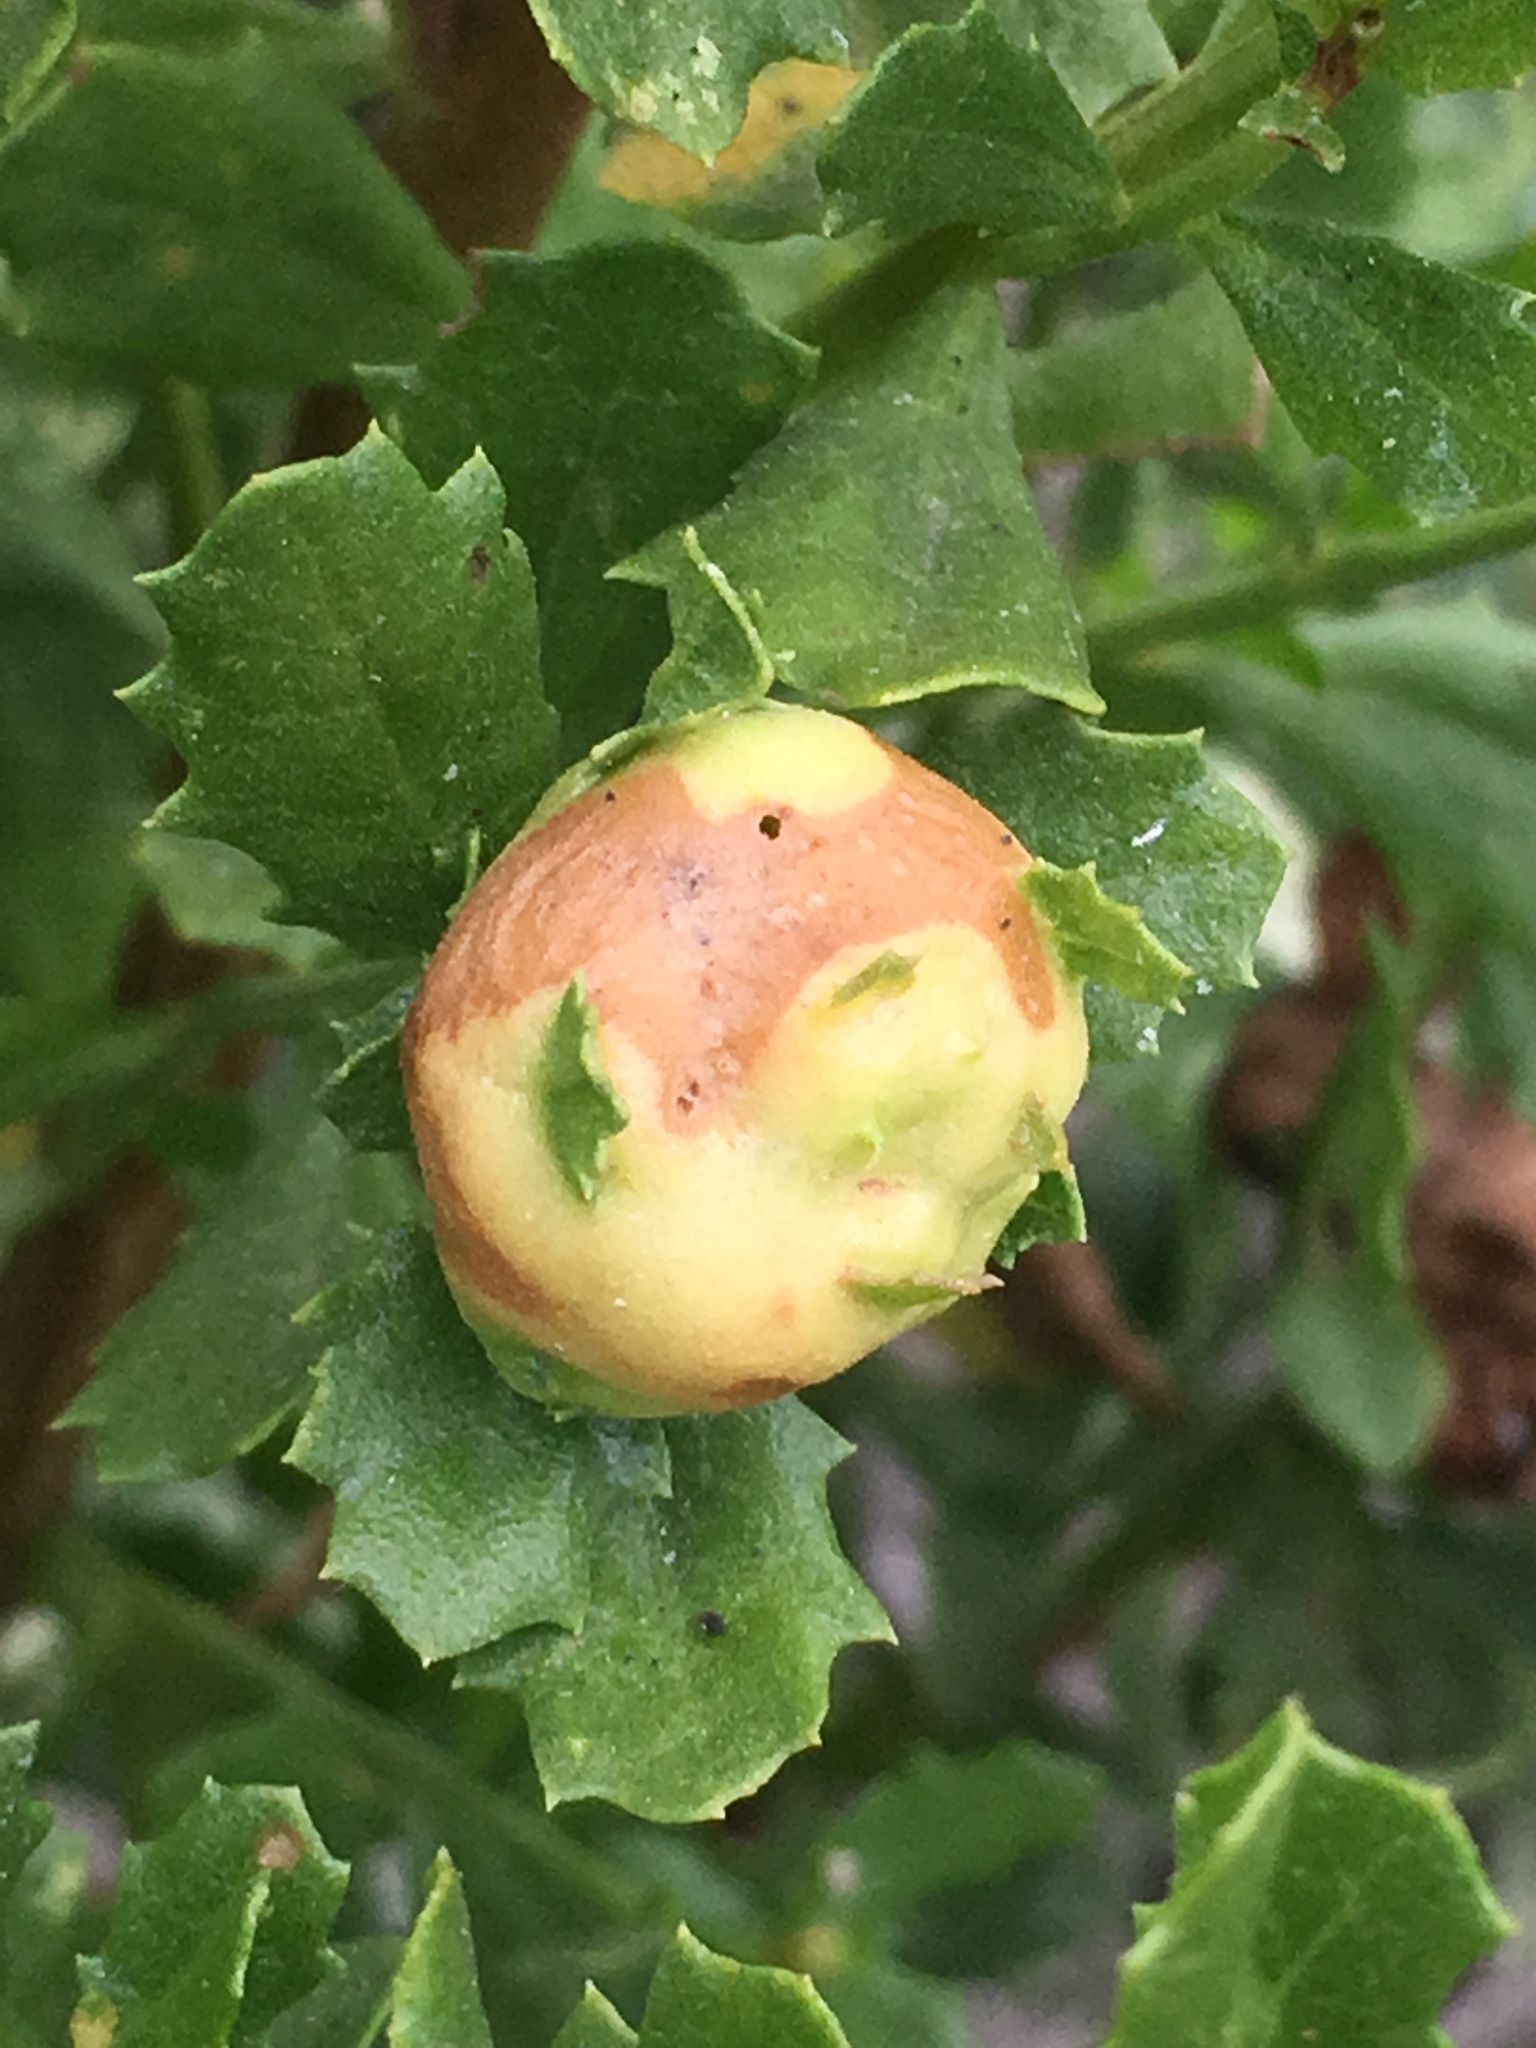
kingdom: Animalia
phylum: Arthropoda
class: Insecta
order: Diptera
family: Cecidomyiidae
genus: Rhopalomyia
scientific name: Rhopalomyia californica
